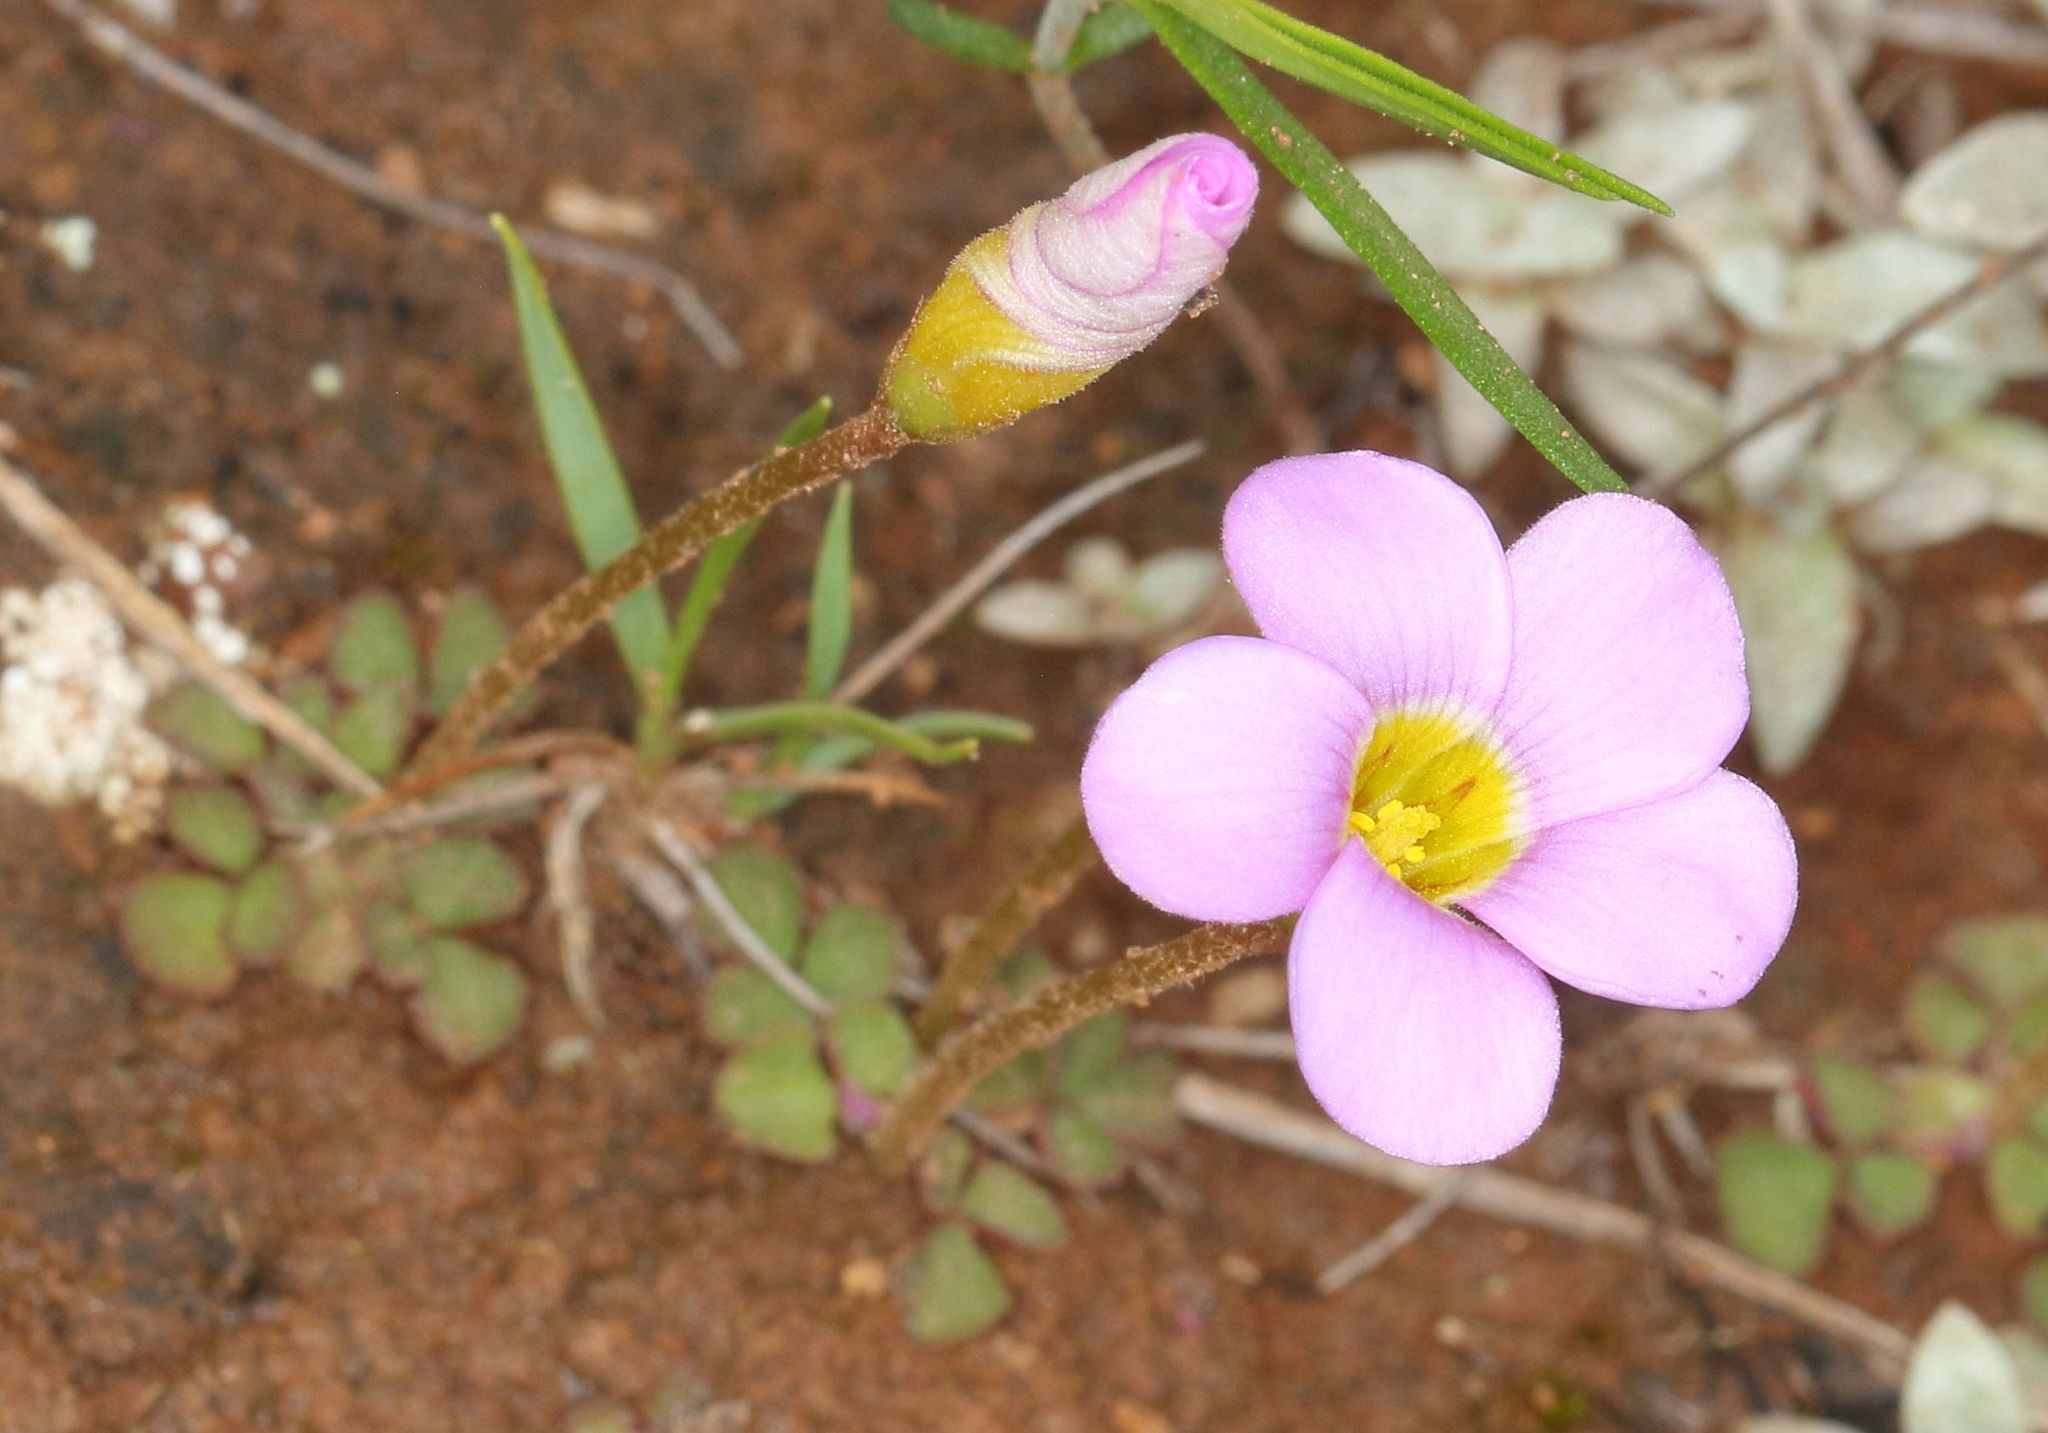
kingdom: Plantae
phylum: Tracheophyta
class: Magnoliopsida
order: Oxalidales
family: Oxalidaceae
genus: Oxalis
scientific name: Oxalis obliquifolia
